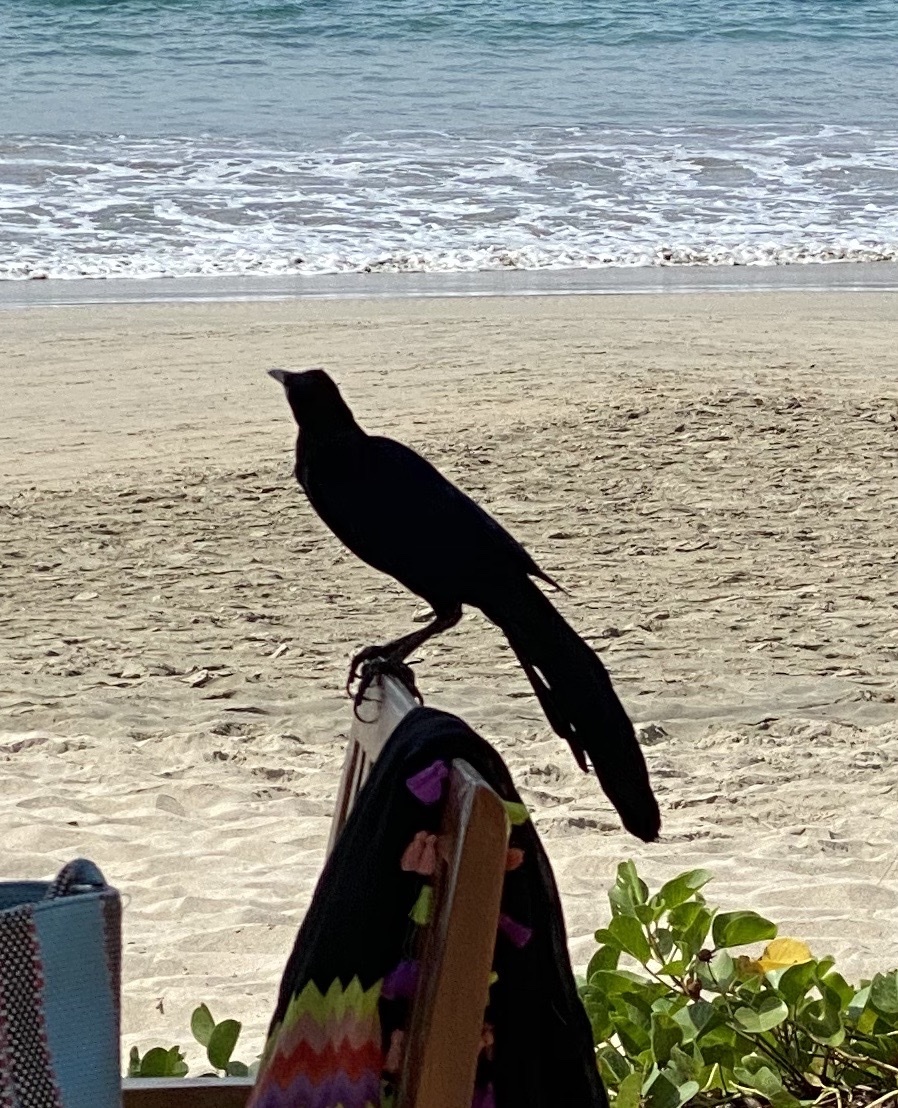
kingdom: Animalia
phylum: Chordata
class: Aves
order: Passeriformes
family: Icteridae
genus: Quiscalus
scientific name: Quiscalus mexicanus
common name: Great-tailed grackle
